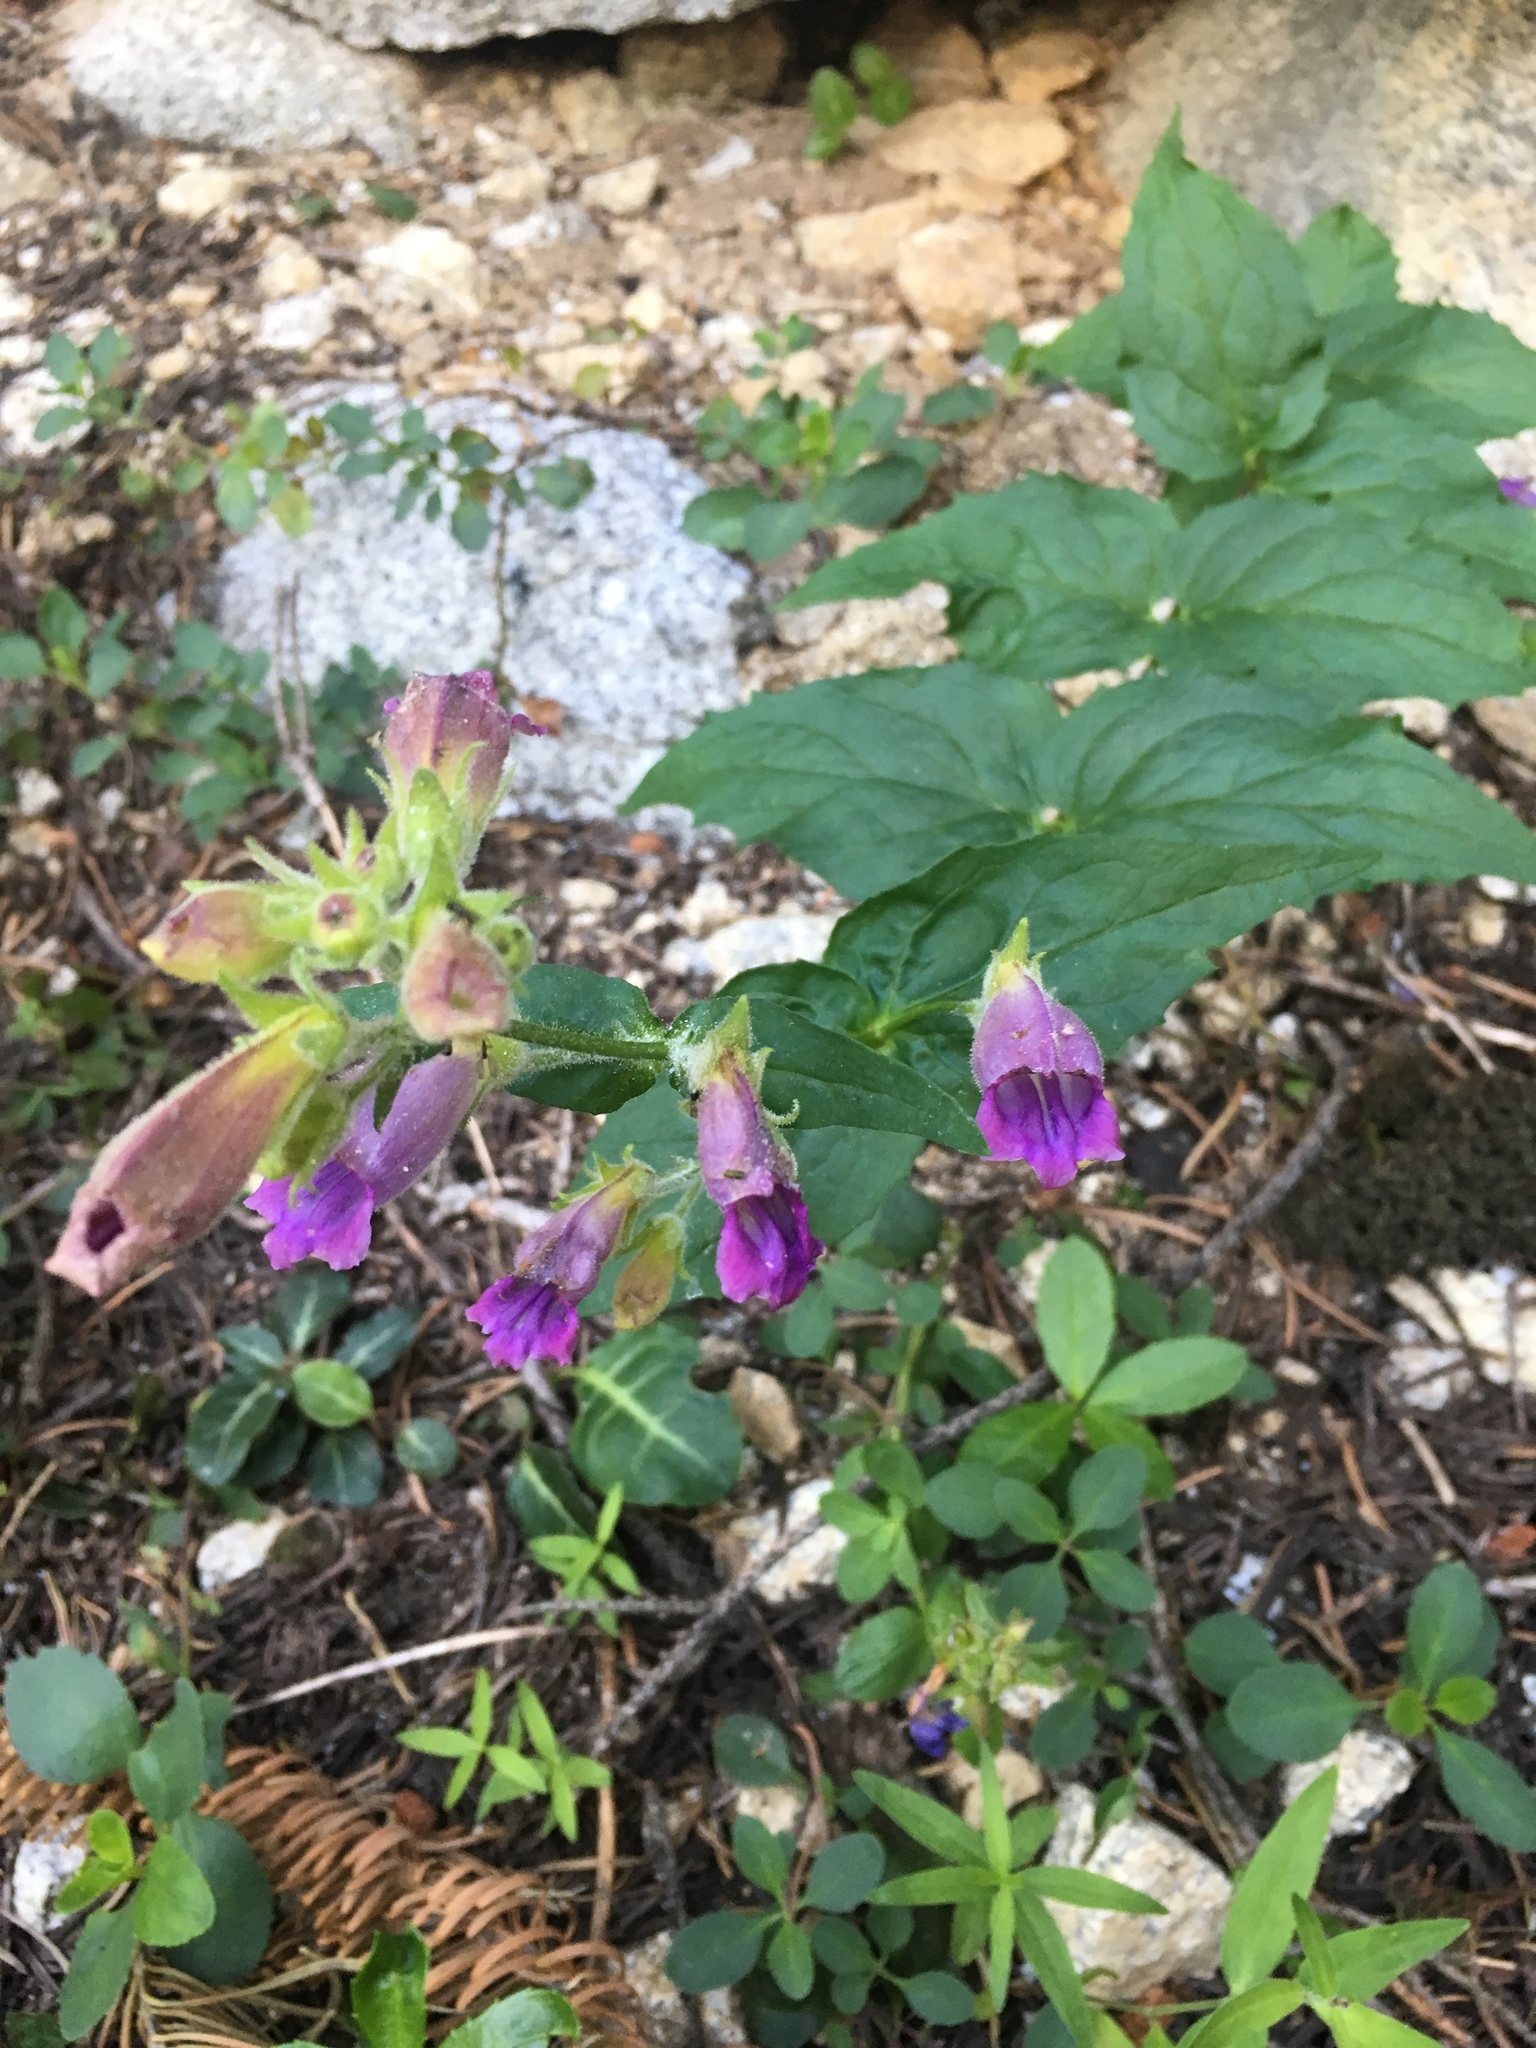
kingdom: Plantae
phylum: Tracheophyta
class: Magnoliopsida
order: Lamiales
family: Plantaginaceae
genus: Nothochelone
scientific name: Nothochelone nemorosa
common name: Woodland beardtongue
